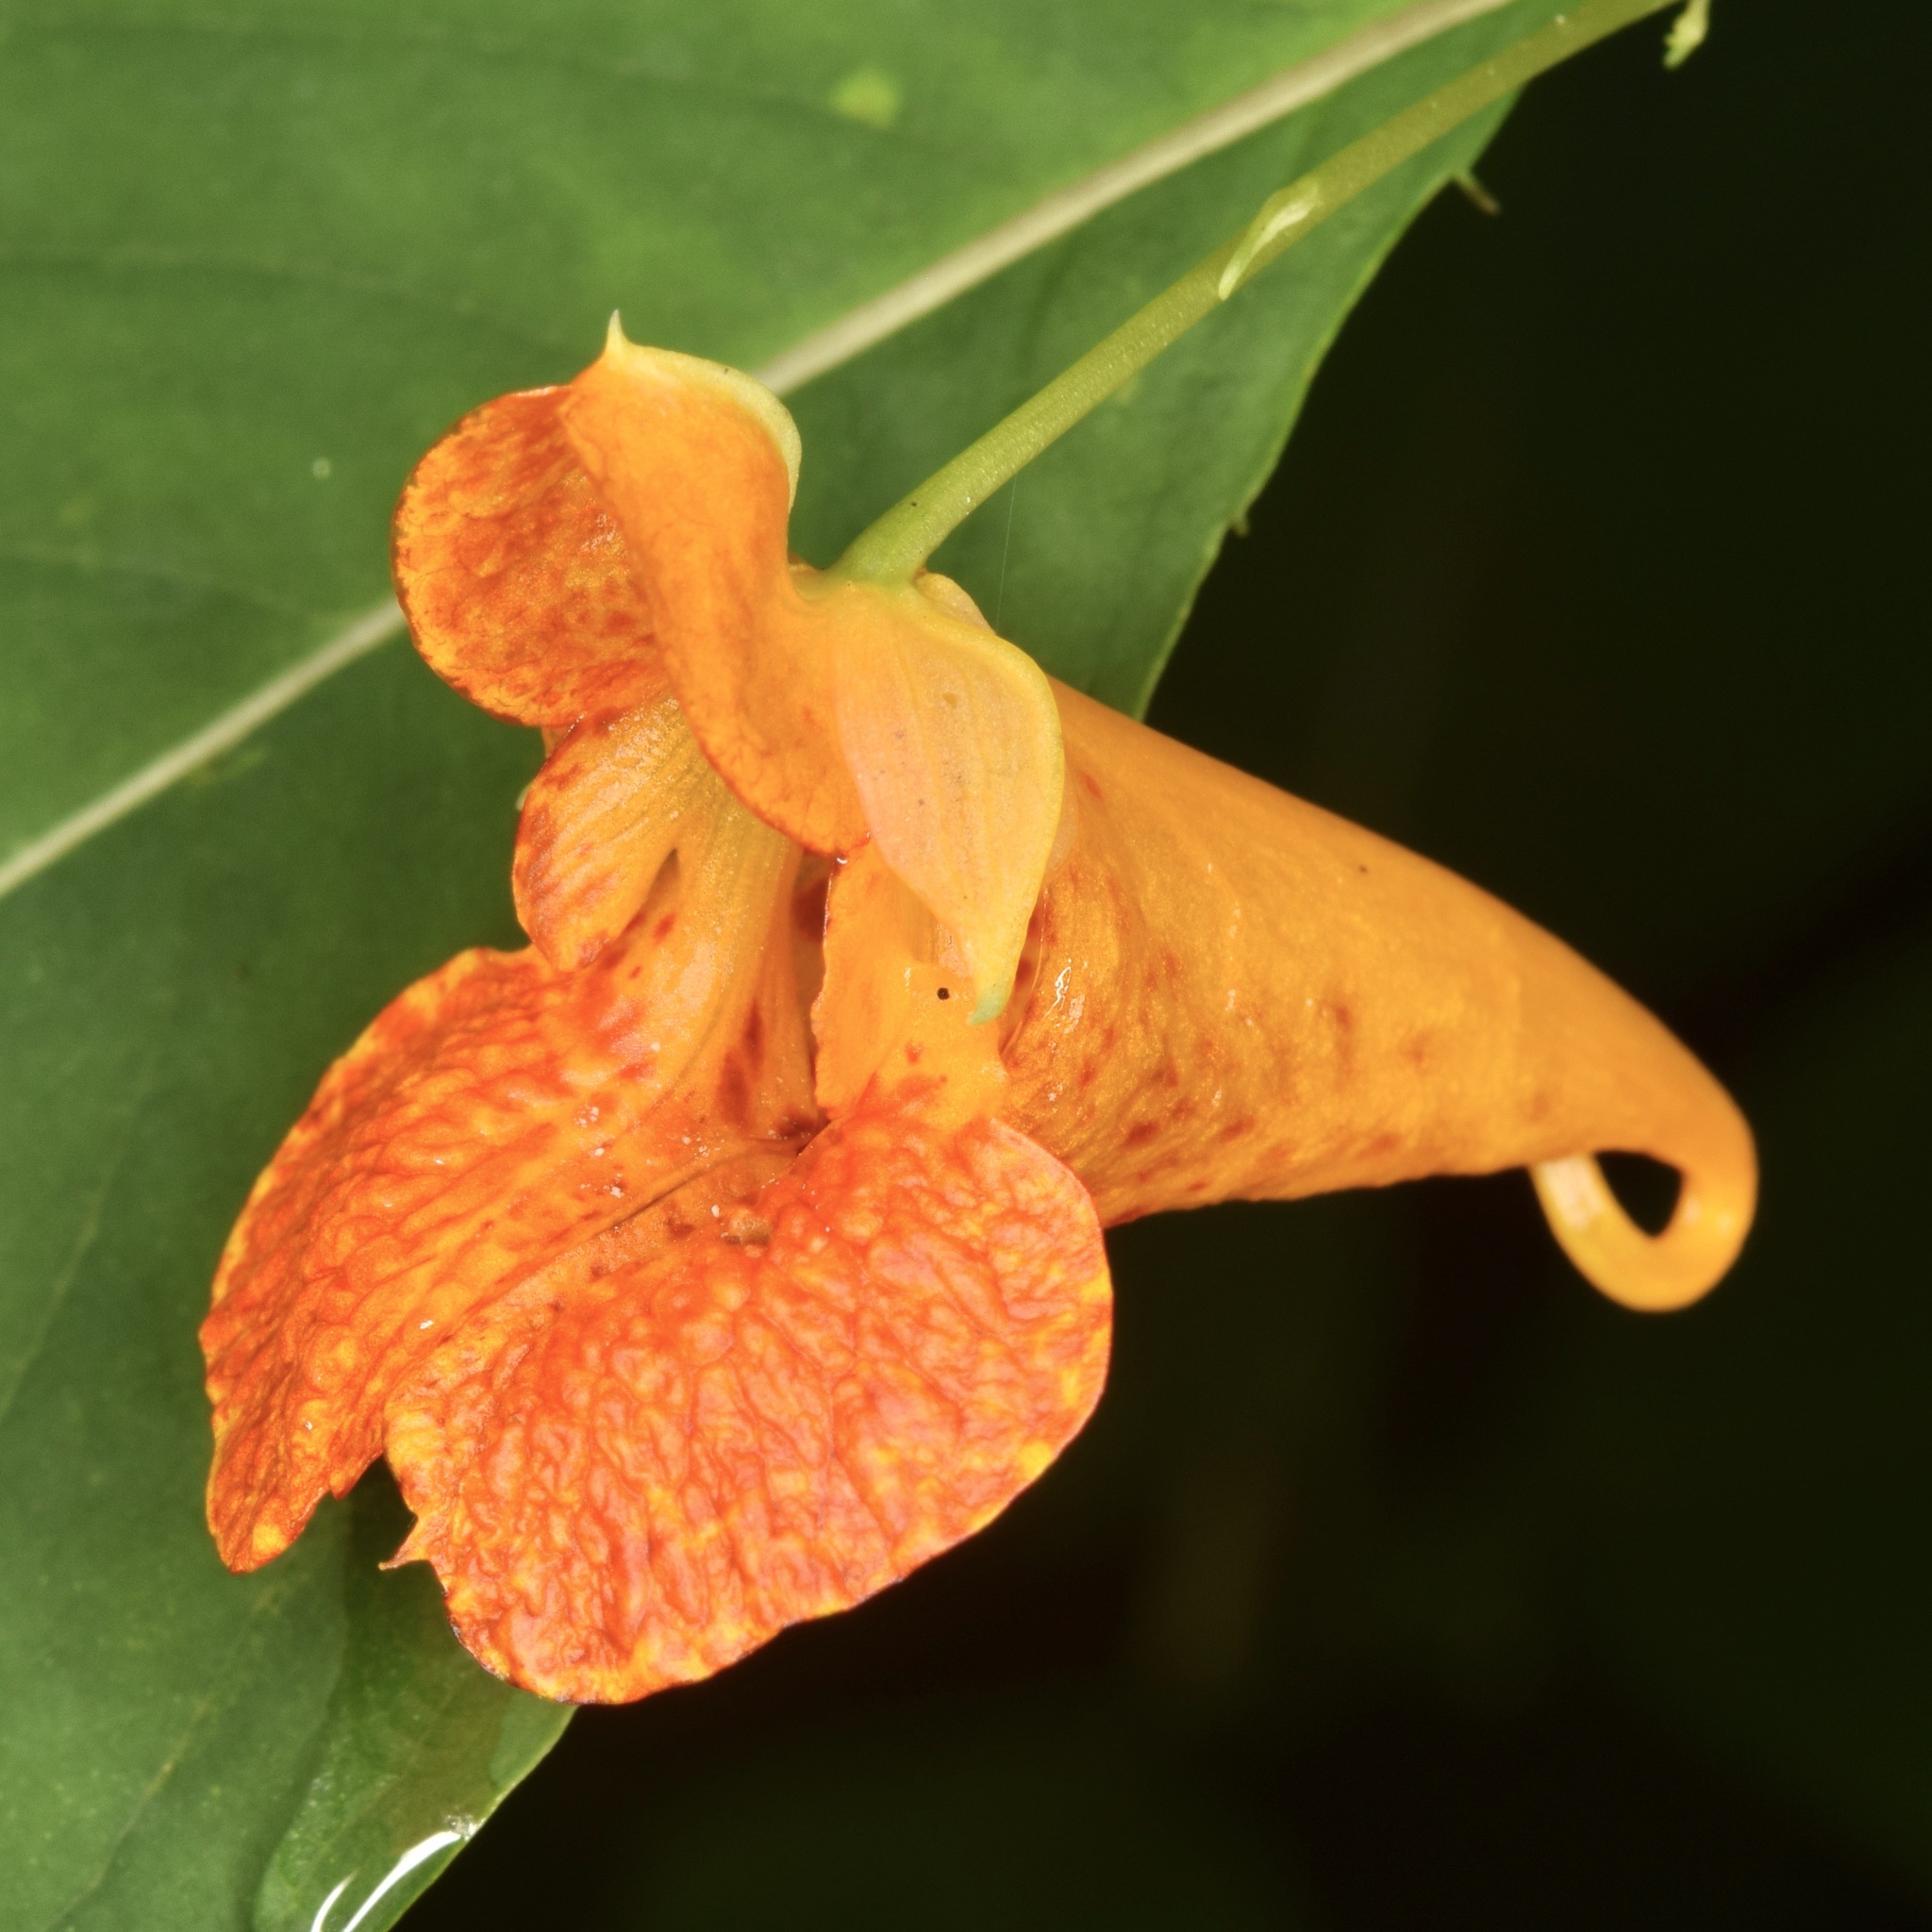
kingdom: Plantae
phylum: Tracheophyta
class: Magnoliopsida
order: Ericales
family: Balsaminaceae
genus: Impatiens
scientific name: Impatiens capensis
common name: Orange balsam
